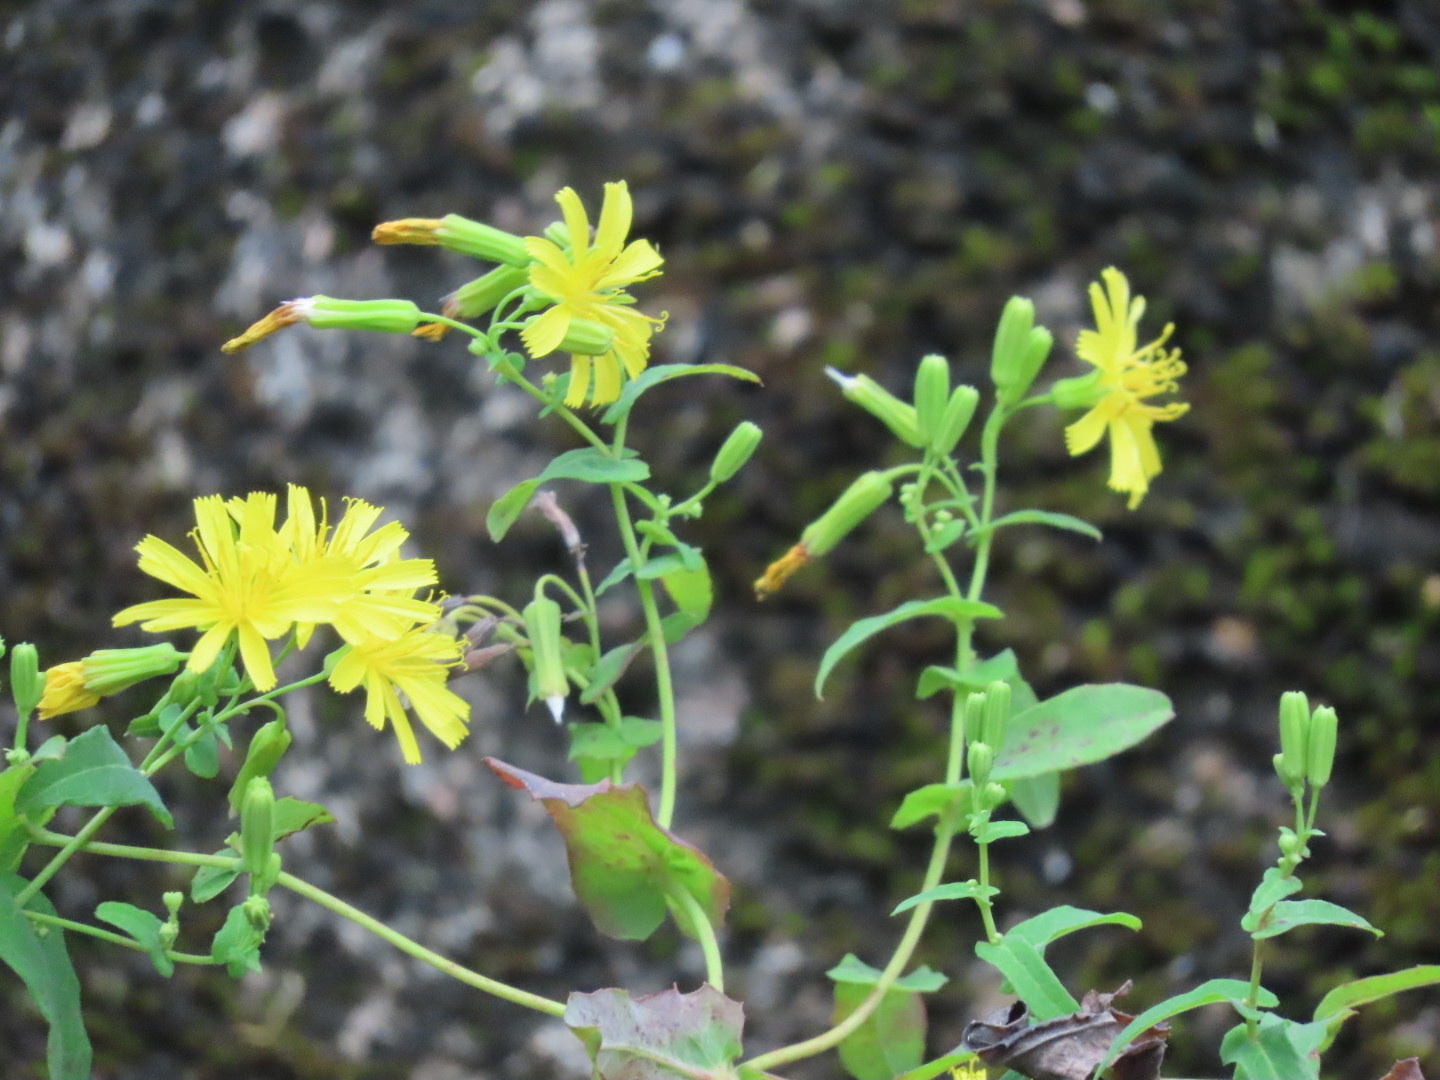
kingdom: Plantae
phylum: Tracheophyta
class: Magnoliopsida
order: Asterales
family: Asteraceae
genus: Crepidiastrum
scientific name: Crepidiastrum denticulatum
